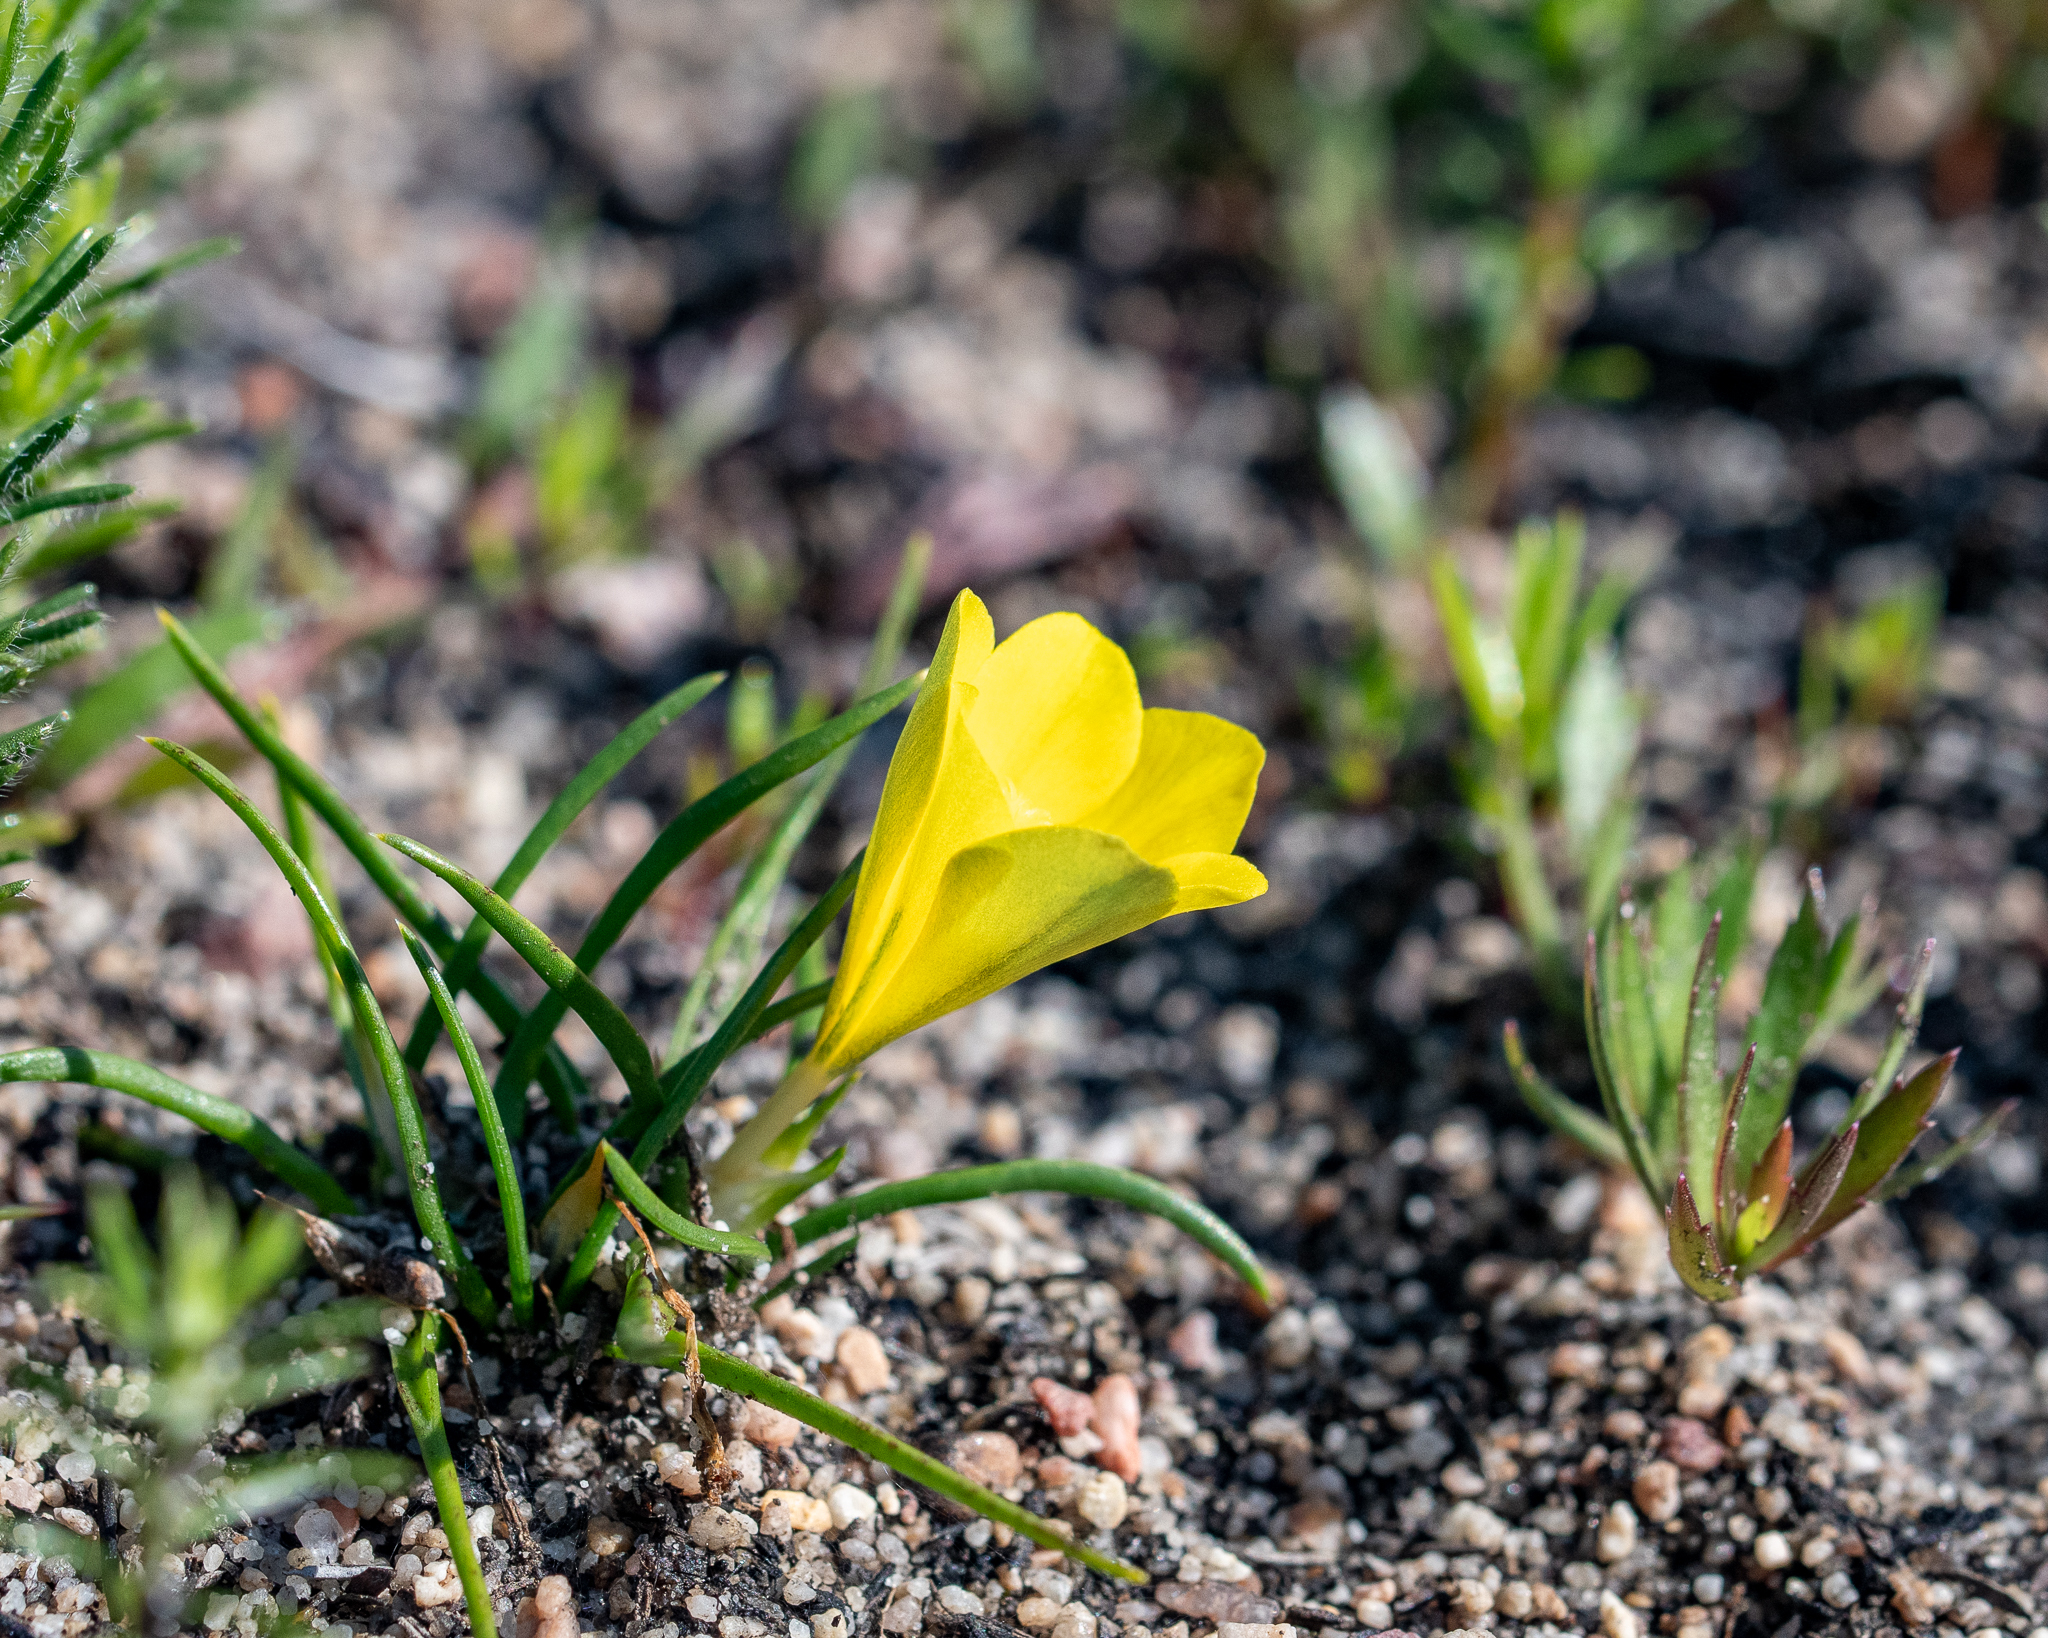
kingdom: Plantae
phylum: Tracheophyta
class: Liliopsida
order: Asparagales
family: Iridaceae
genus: Moraea
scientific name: Moraea fugacissima
